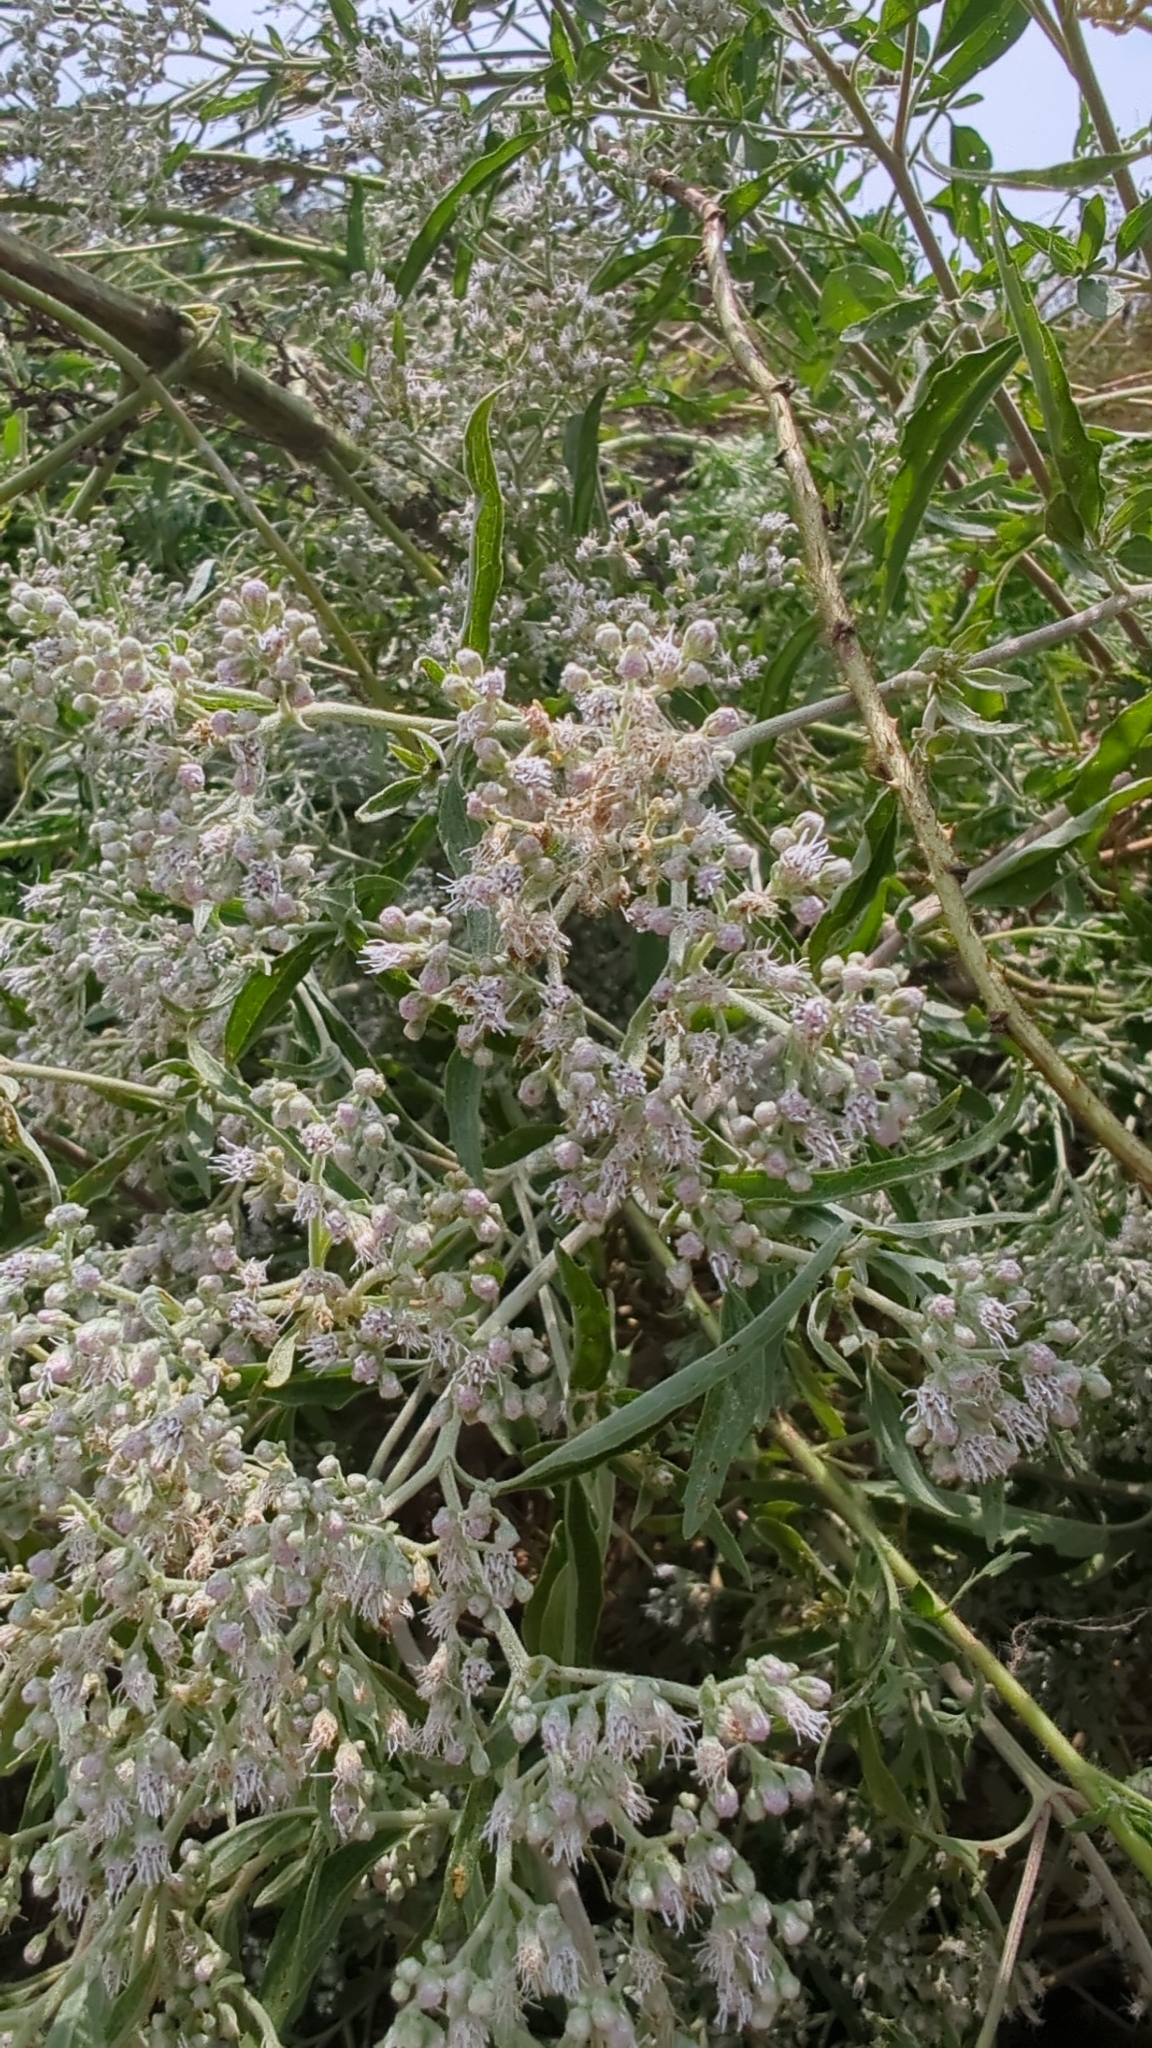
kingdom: Plantae
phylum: Tracheophyta
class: Magnoliopsida
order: Asterales
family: Asteraceae
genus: Eupatorium
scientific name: Eupatorium serotinum
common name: Late boneset
